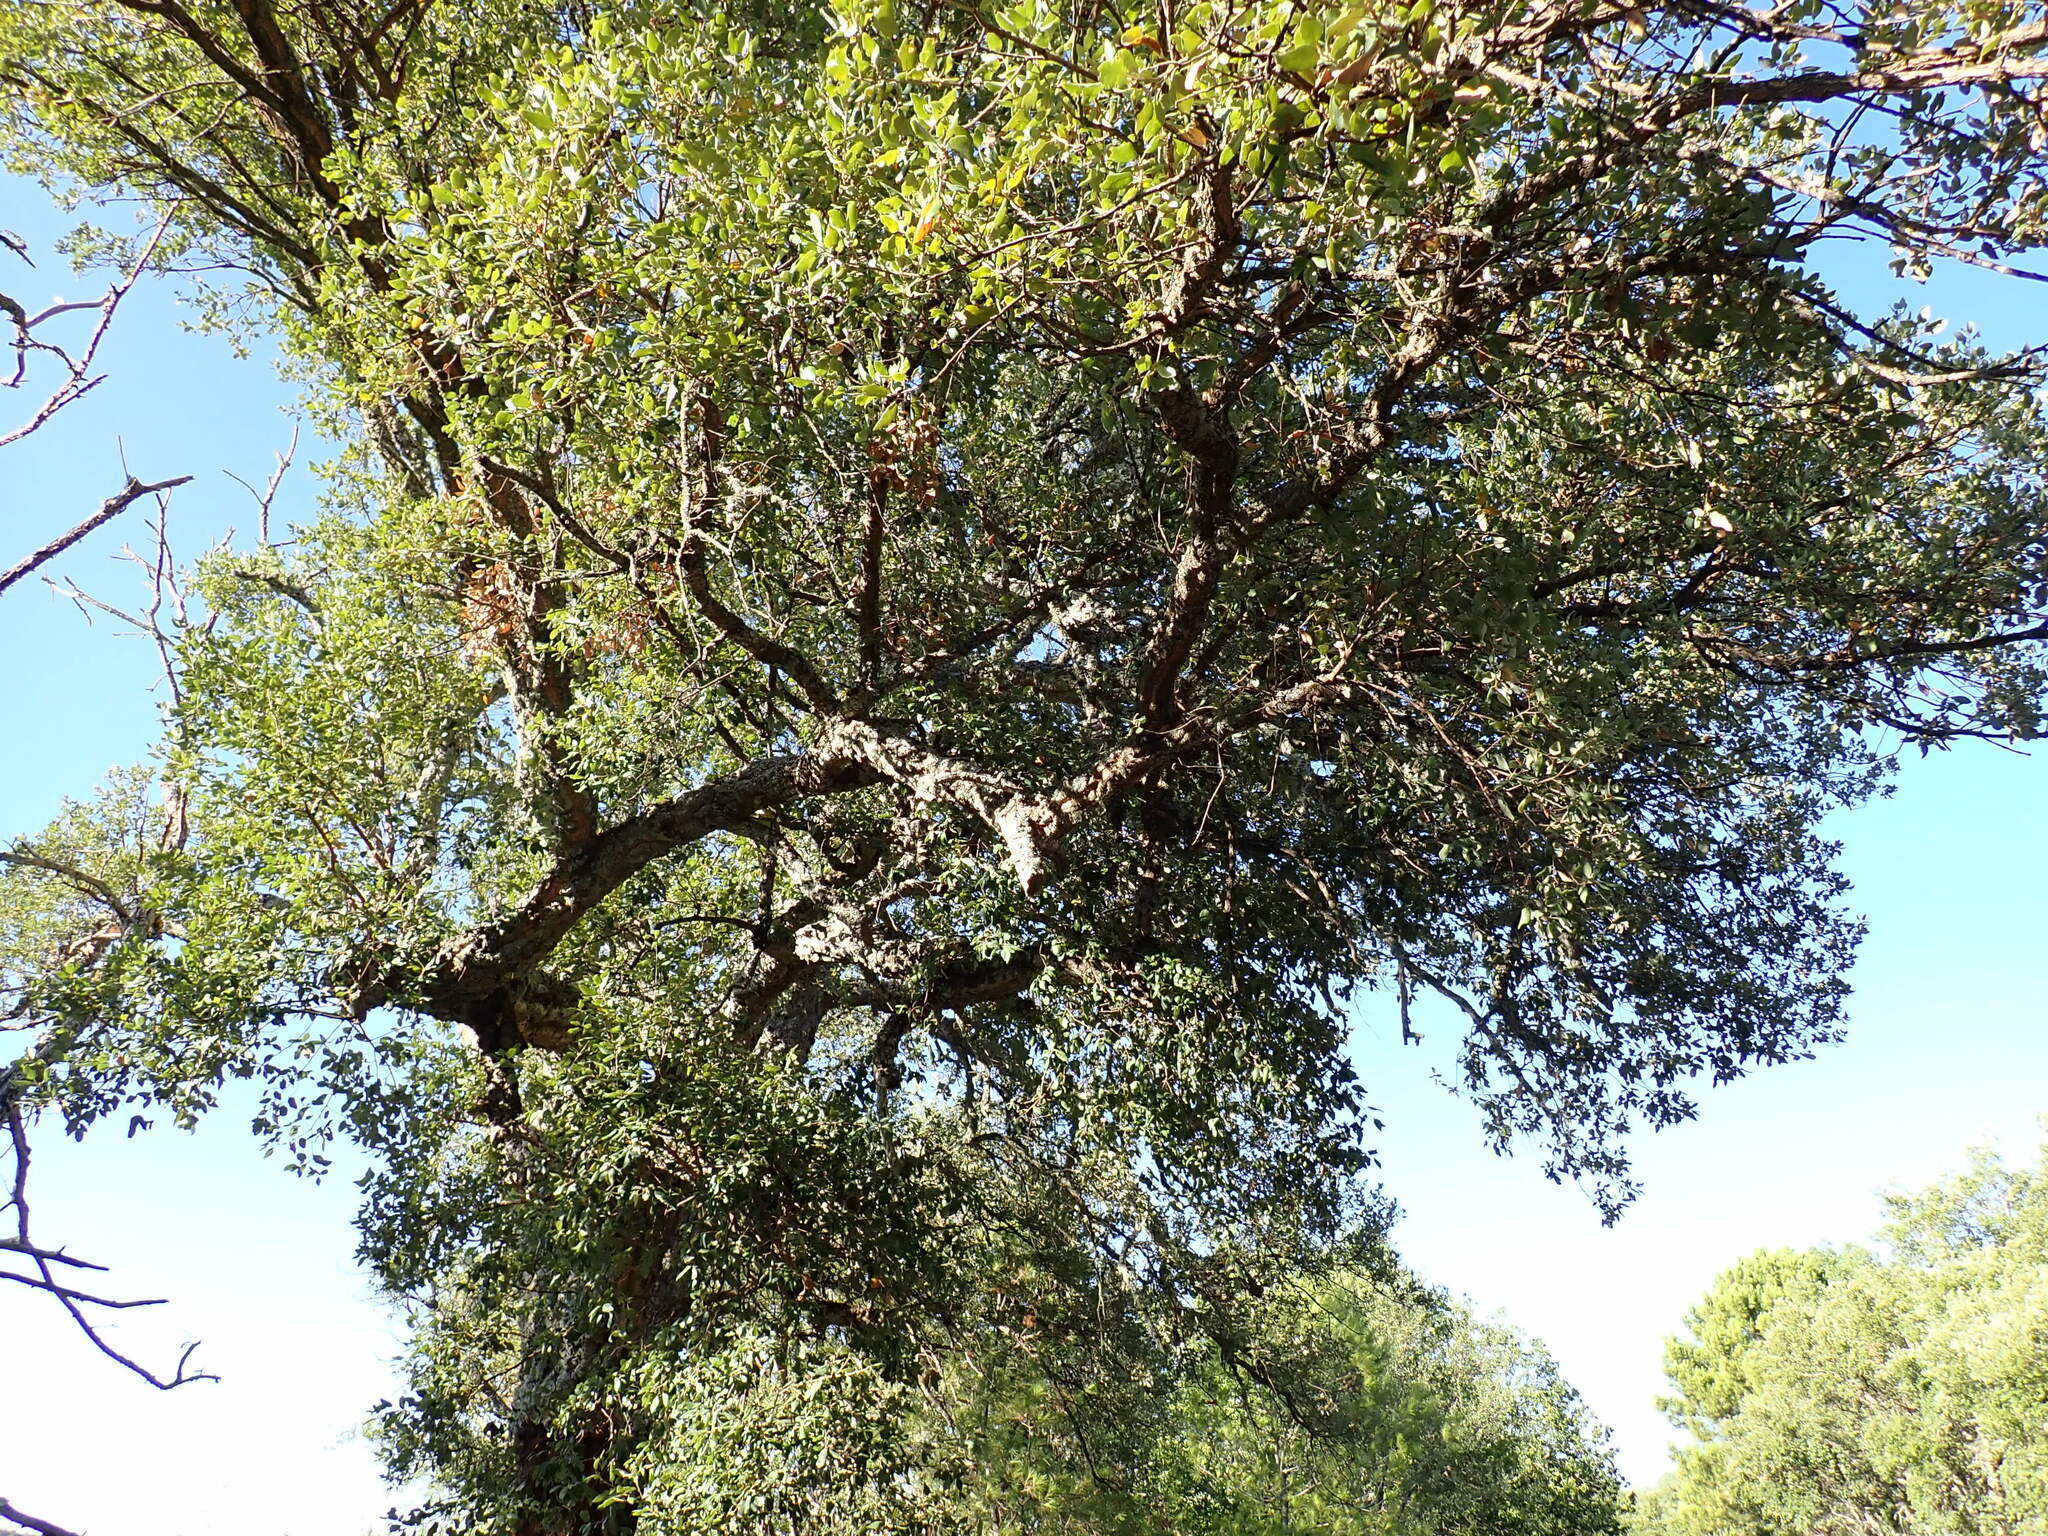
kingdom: Plantae
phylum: Tracheophyta
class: Magnoliopsida
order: Fagales
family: Fagaceae
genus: Quercus
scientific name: Quercus suber
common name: Cork oak
